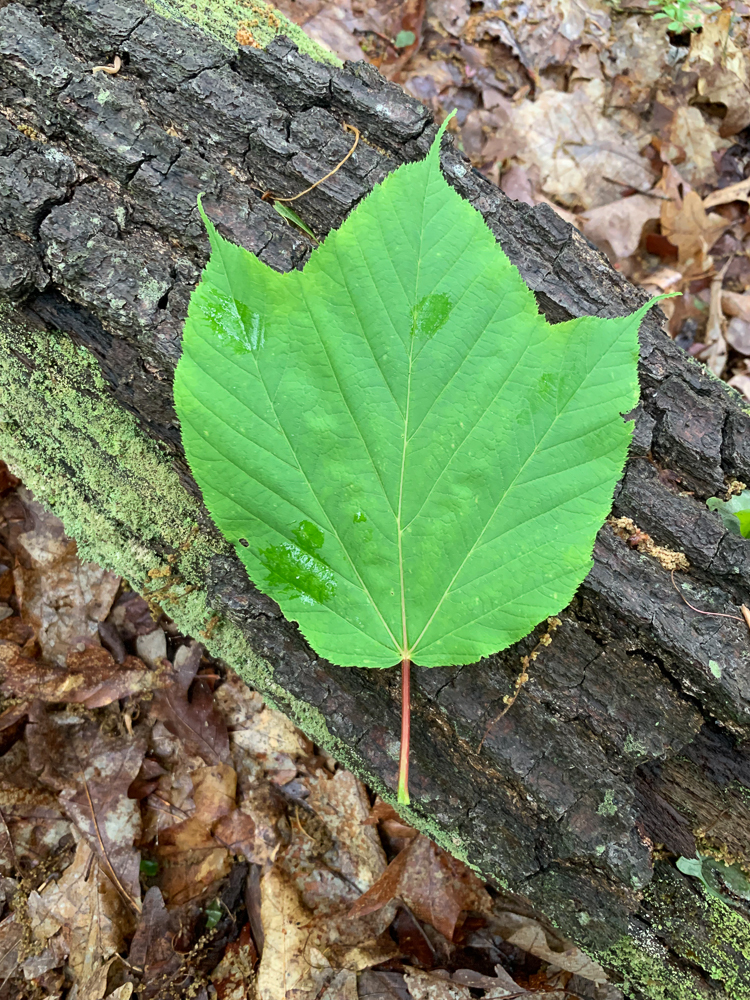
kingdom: Plantae
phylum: Tracheophyta
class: Magnoliopsida
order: Sapindales
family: Sapindaceae
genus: Acer
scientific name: Acer pensylvanicum
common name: Moosewood
